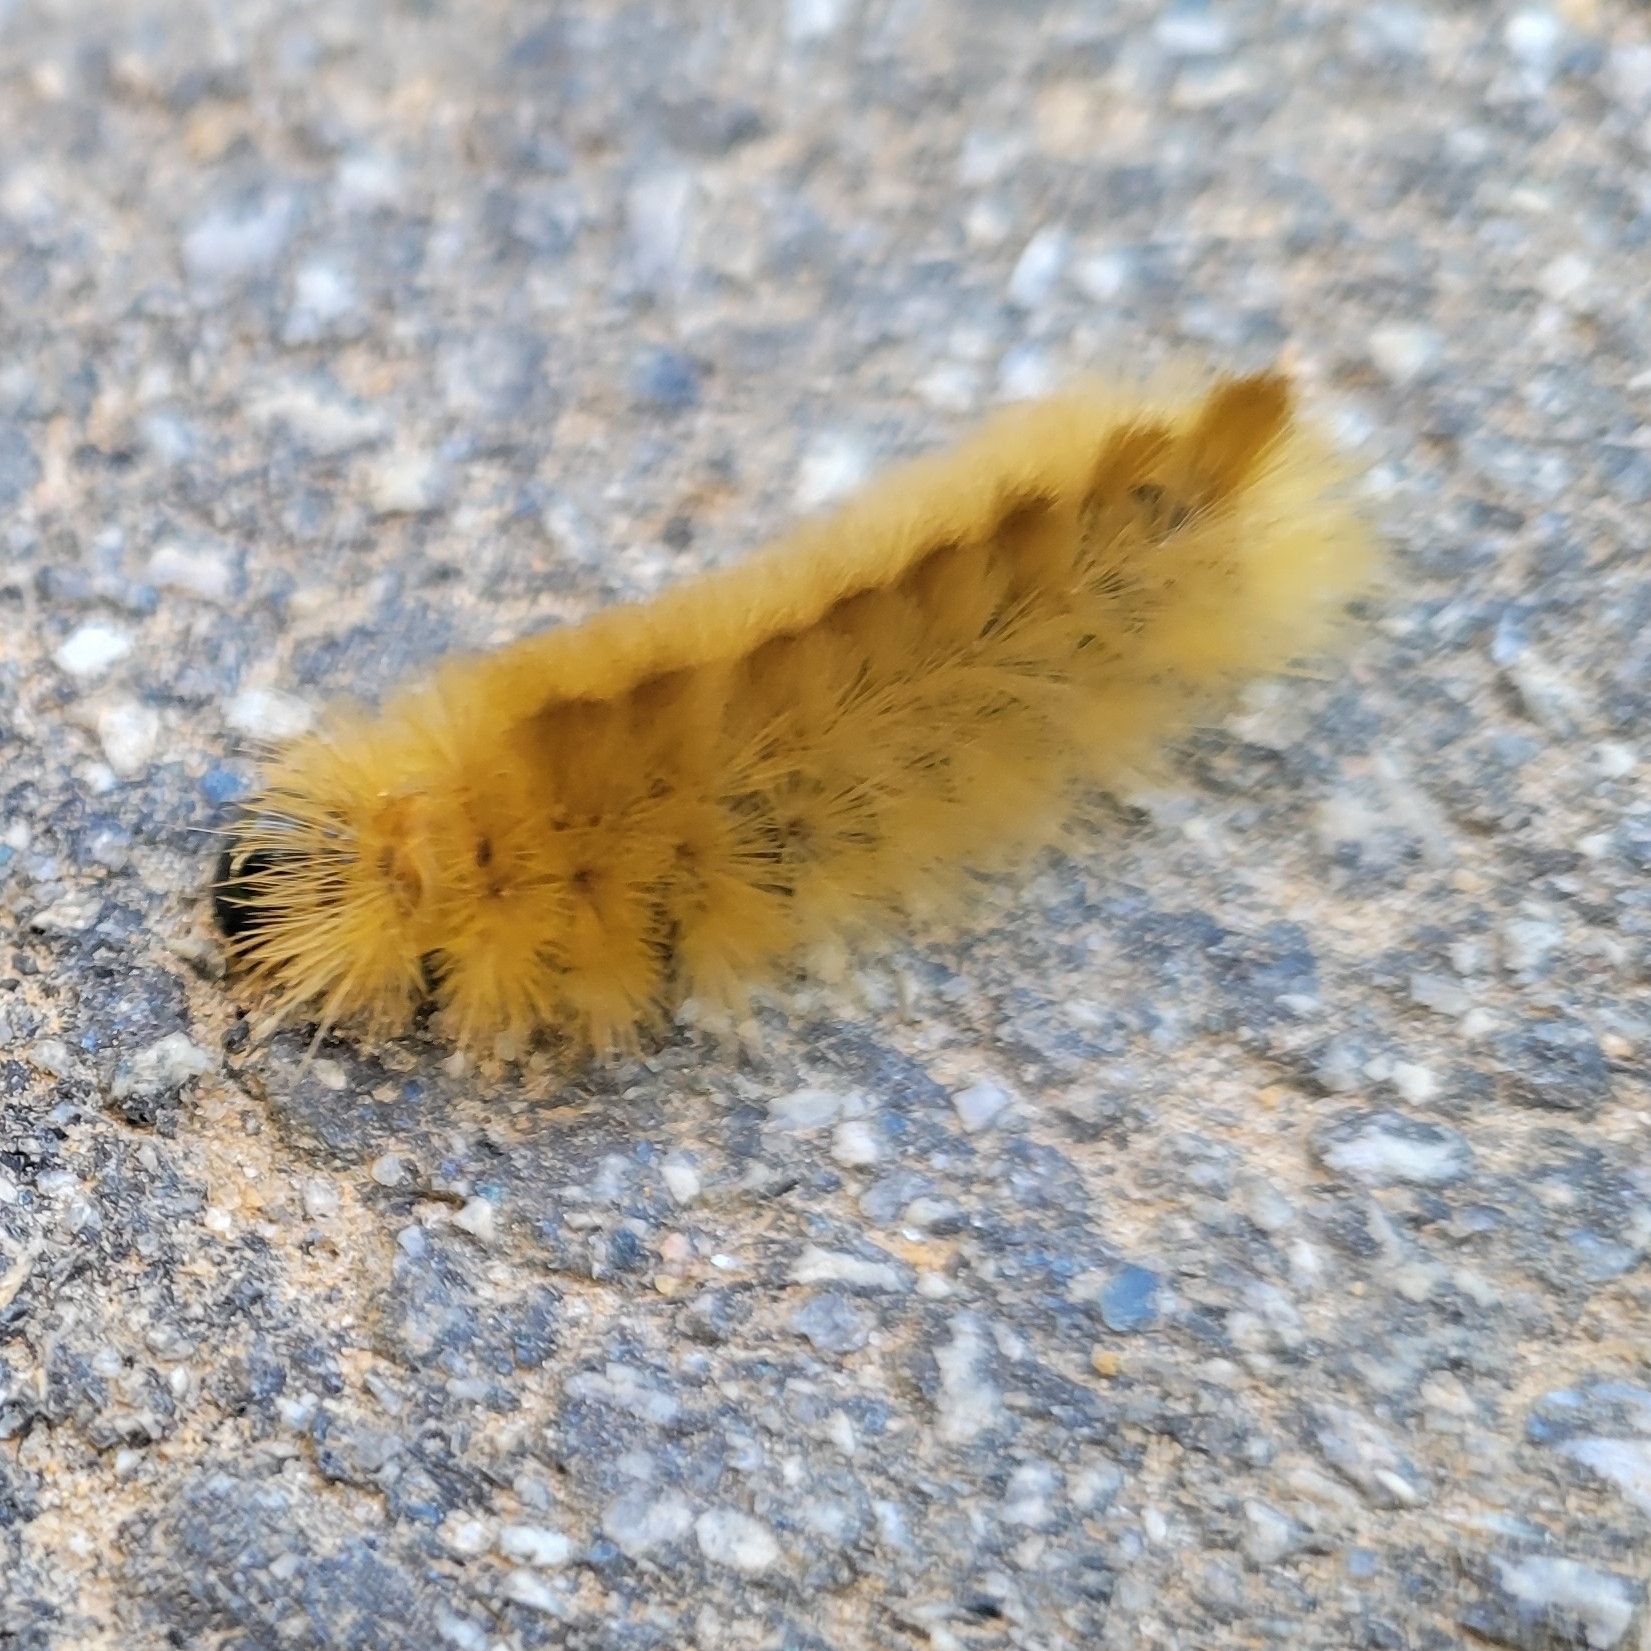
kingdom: Animalia
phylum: Arthropoda
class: Insecta
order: Lepidoptera
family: Erebidae
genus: Halysidota
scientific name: Halysidota tessellaris
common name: Banded tussock moth
